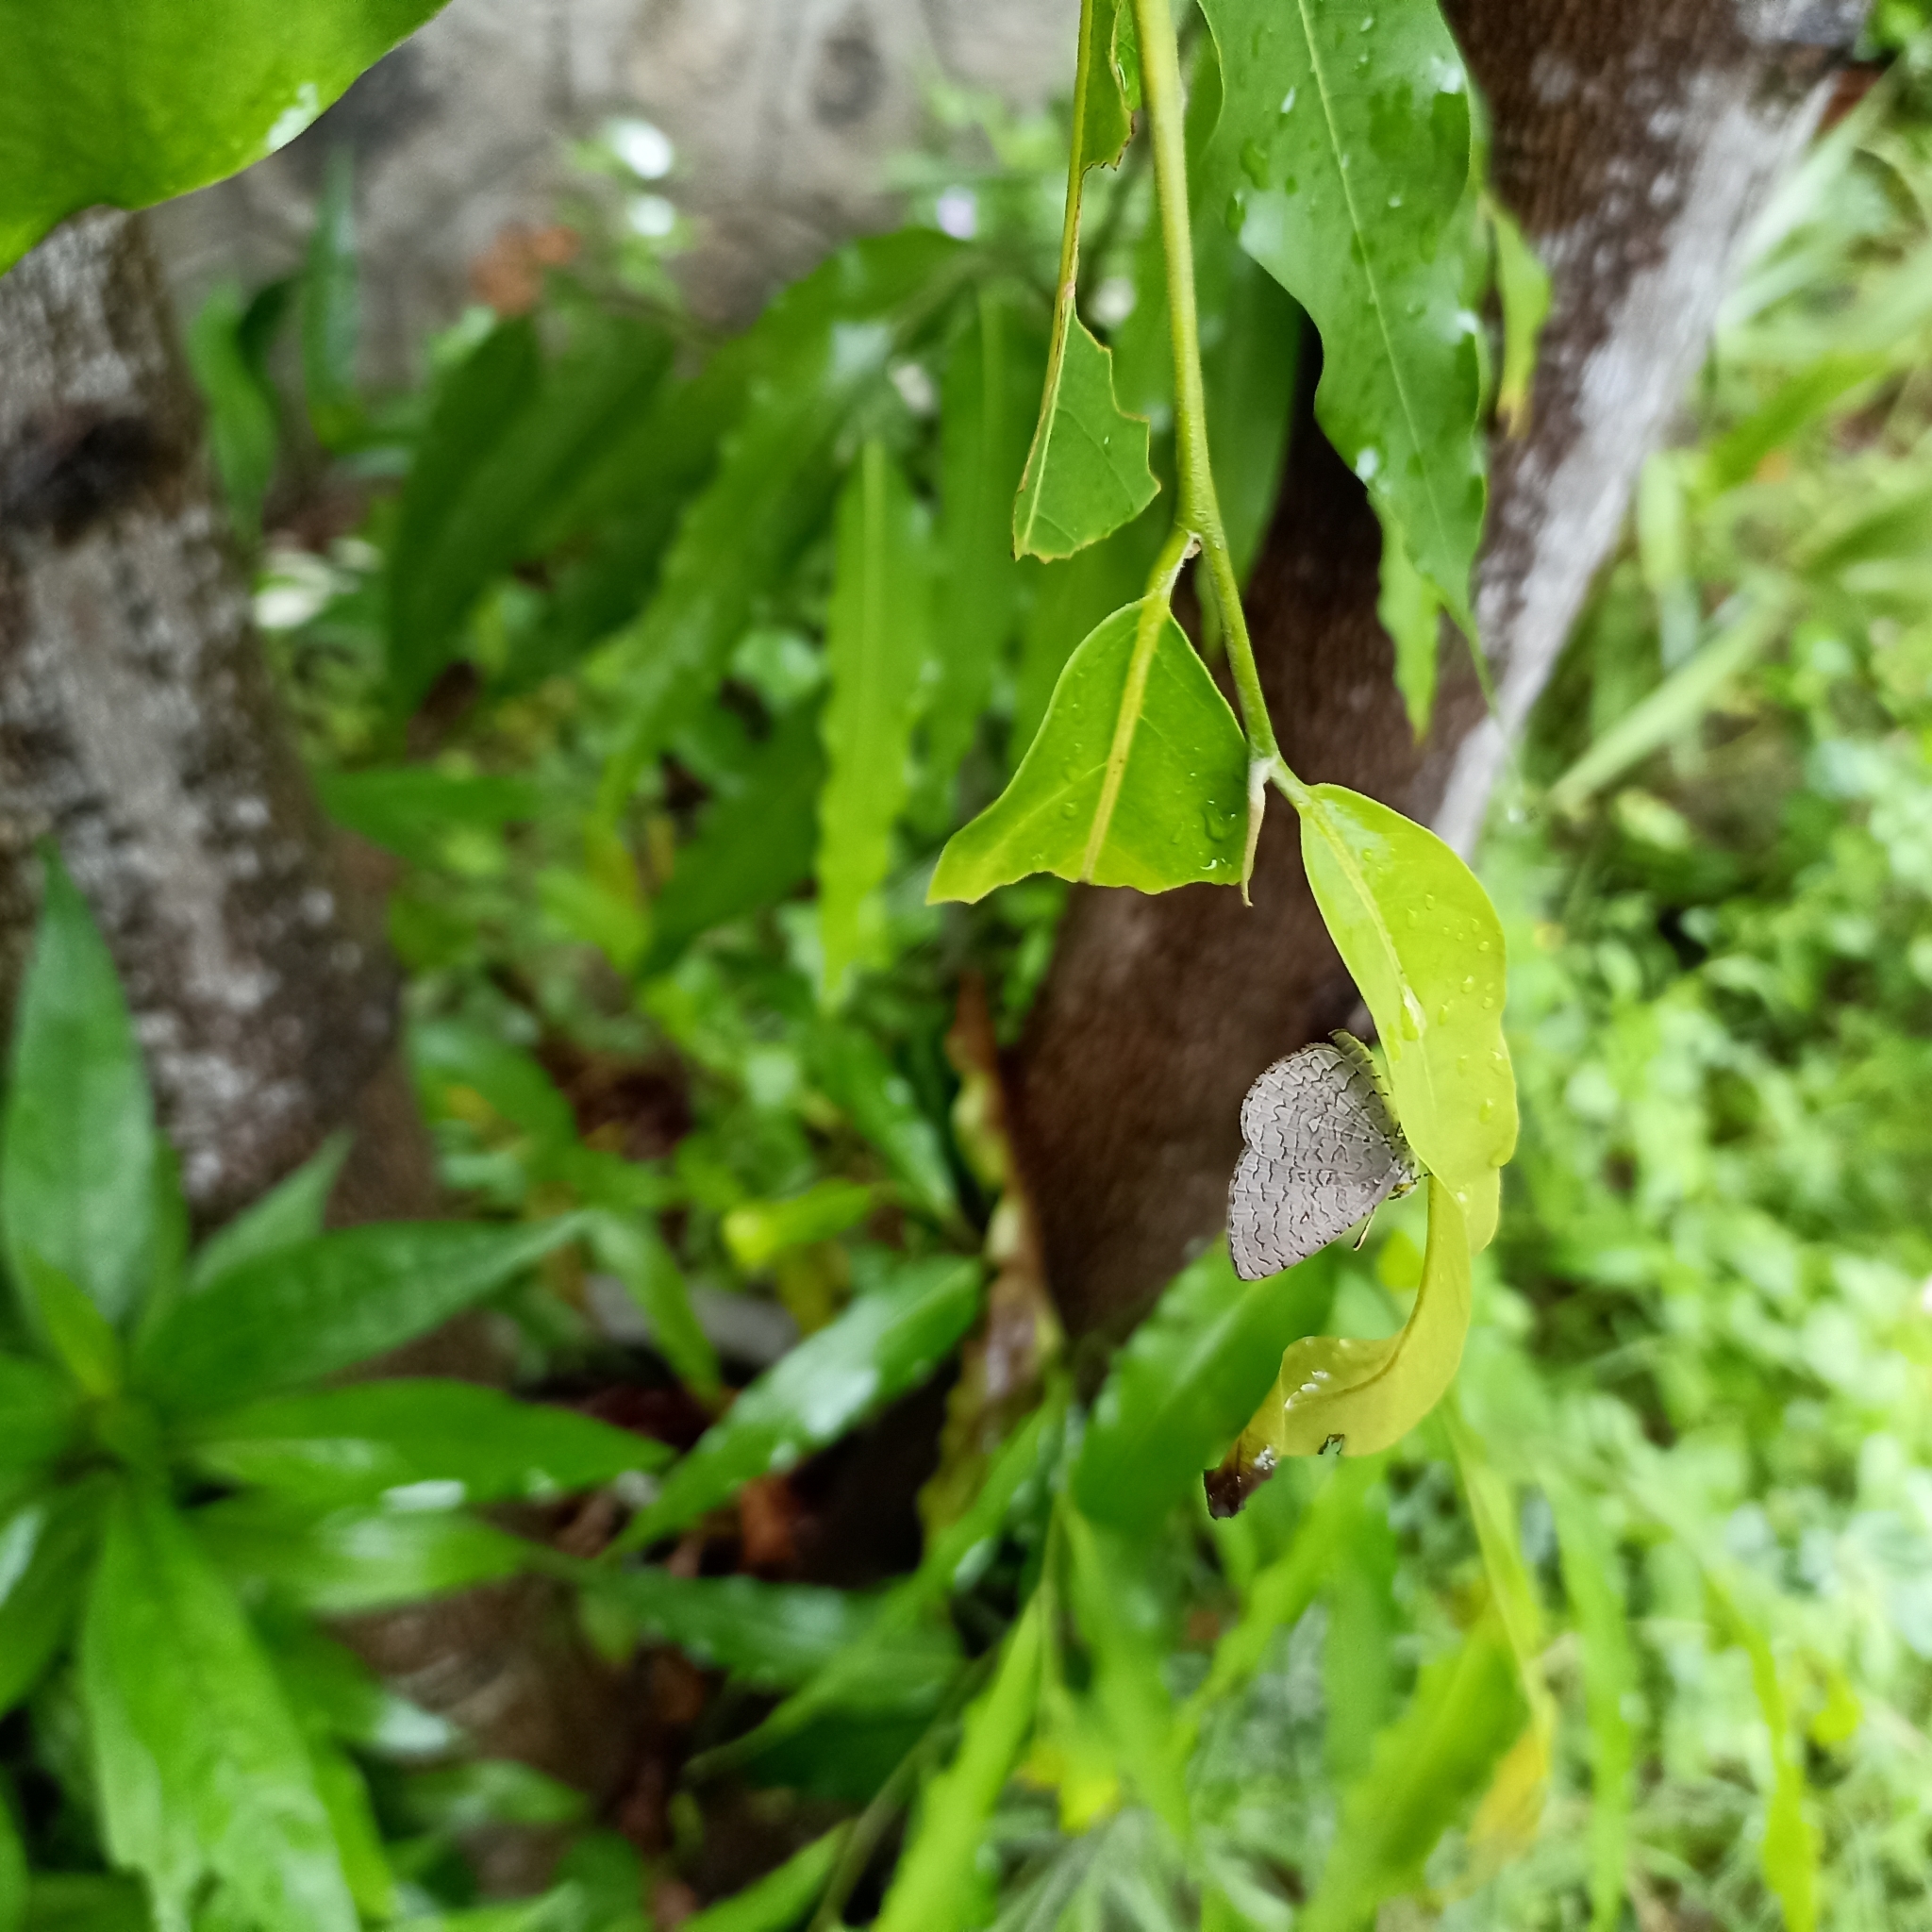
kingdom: Animalia
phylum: Arthropoda
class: Insecta
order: Lepidoptera
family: Lycaenidae
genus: Spalgis
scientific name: Spalgis epius
